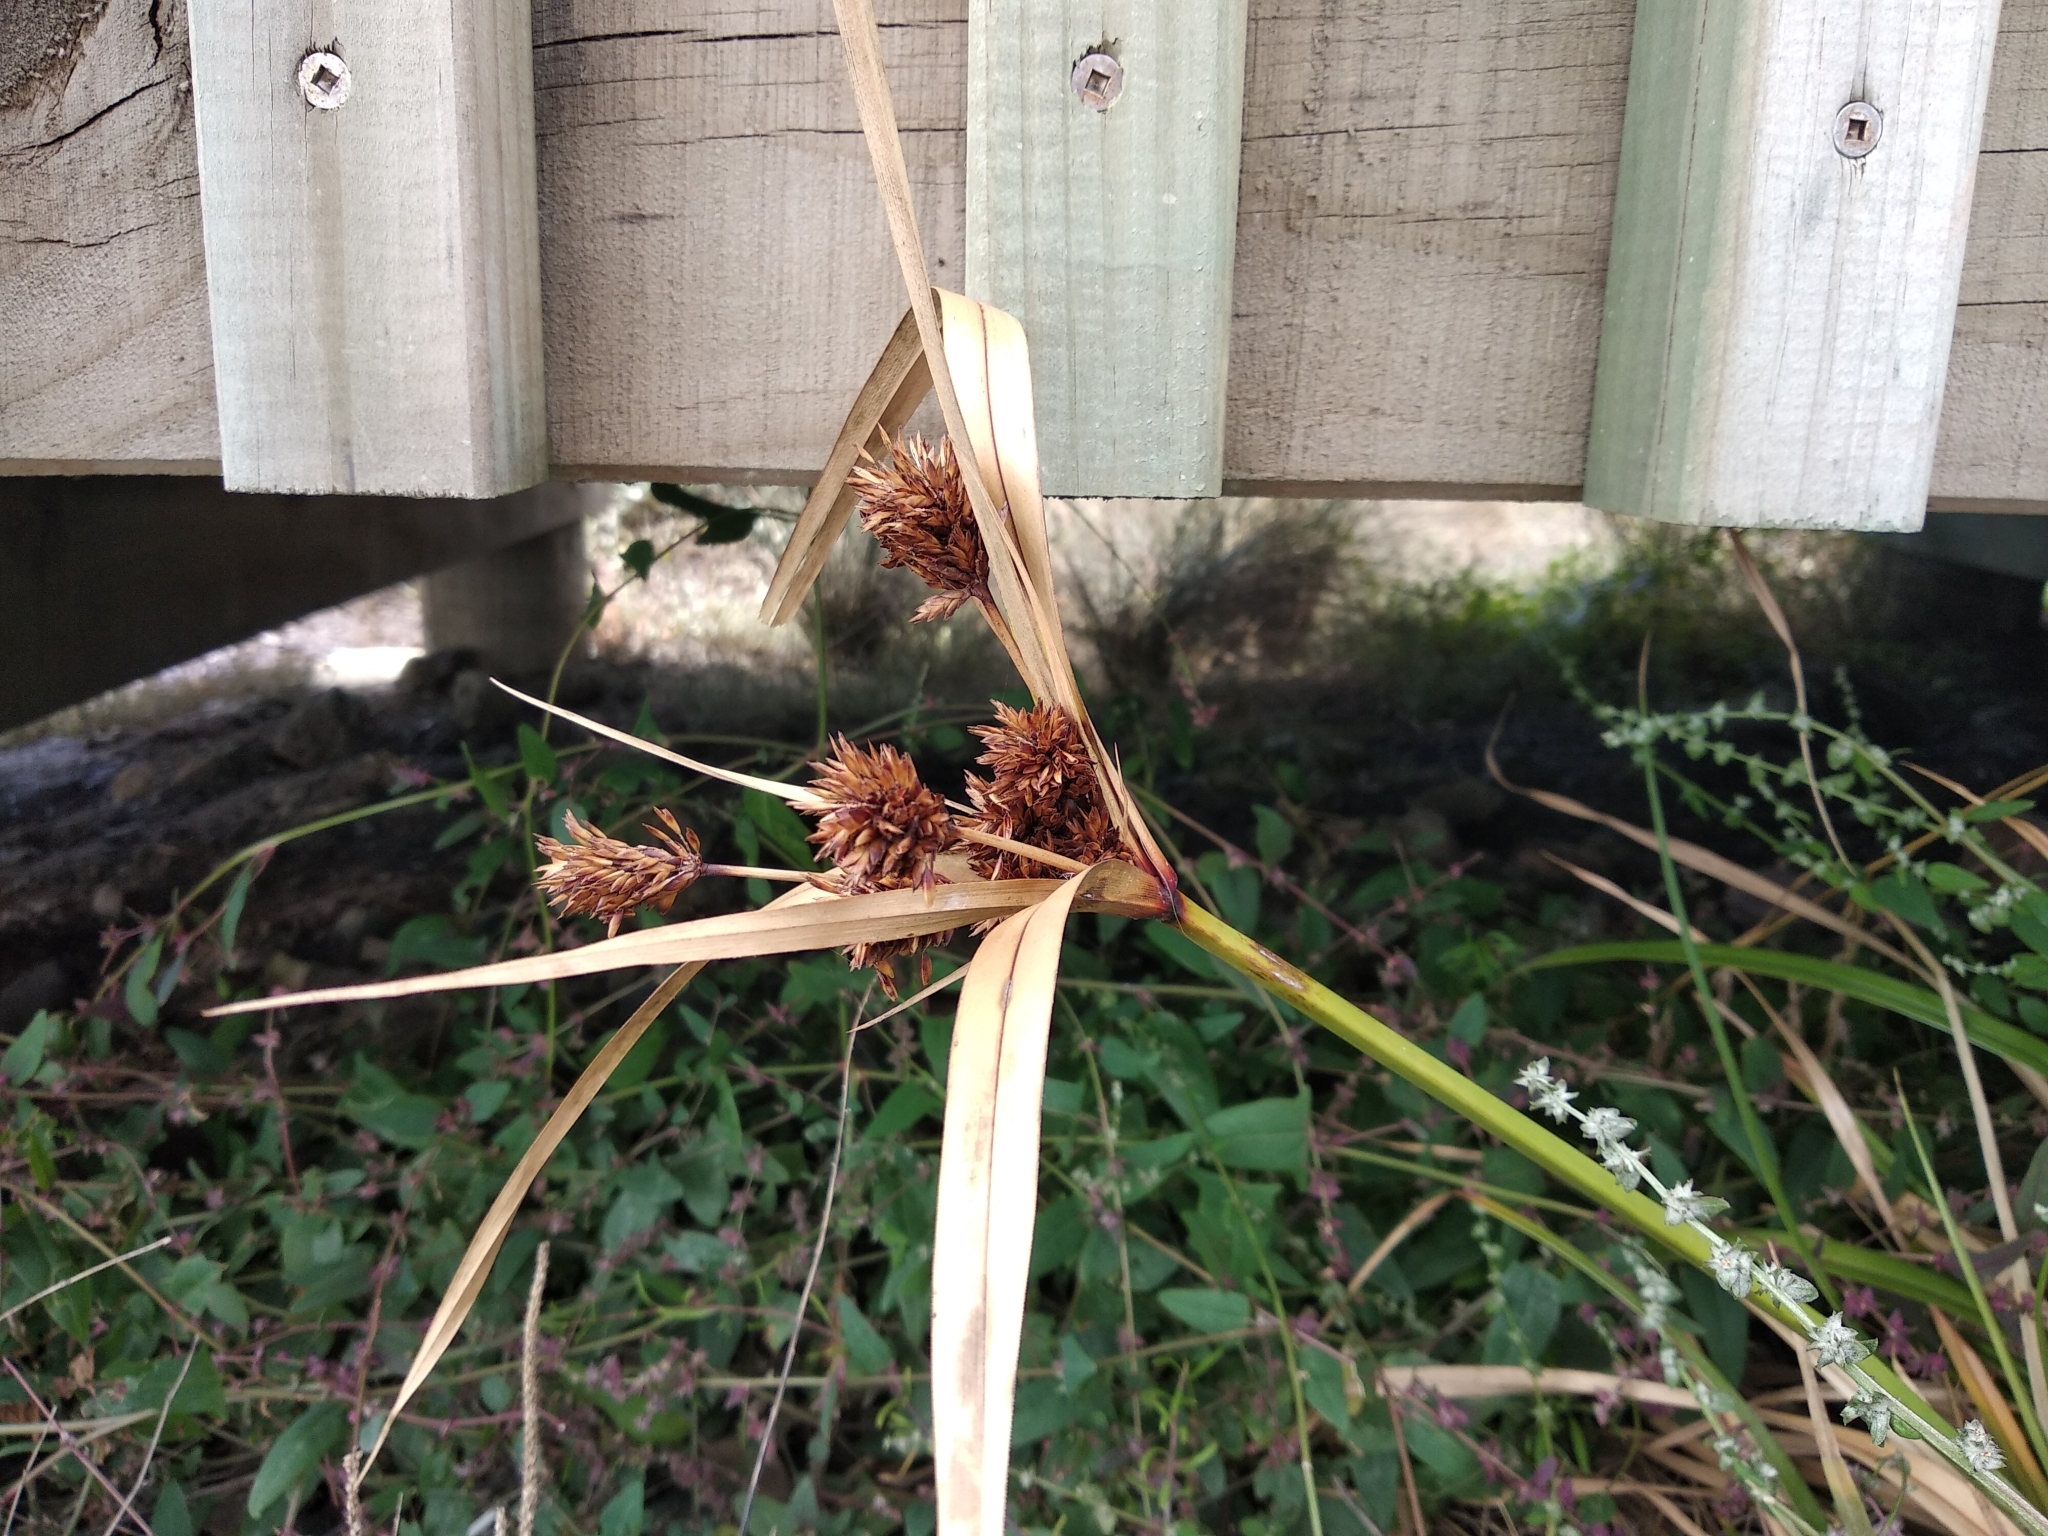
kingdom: Plantae
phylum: Tracheophyta
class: Liliopsida
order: Poales
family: Cyperaceae
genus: Cyperus
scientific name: Cyperus ustulatus
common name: Giant umbrella-sedge
